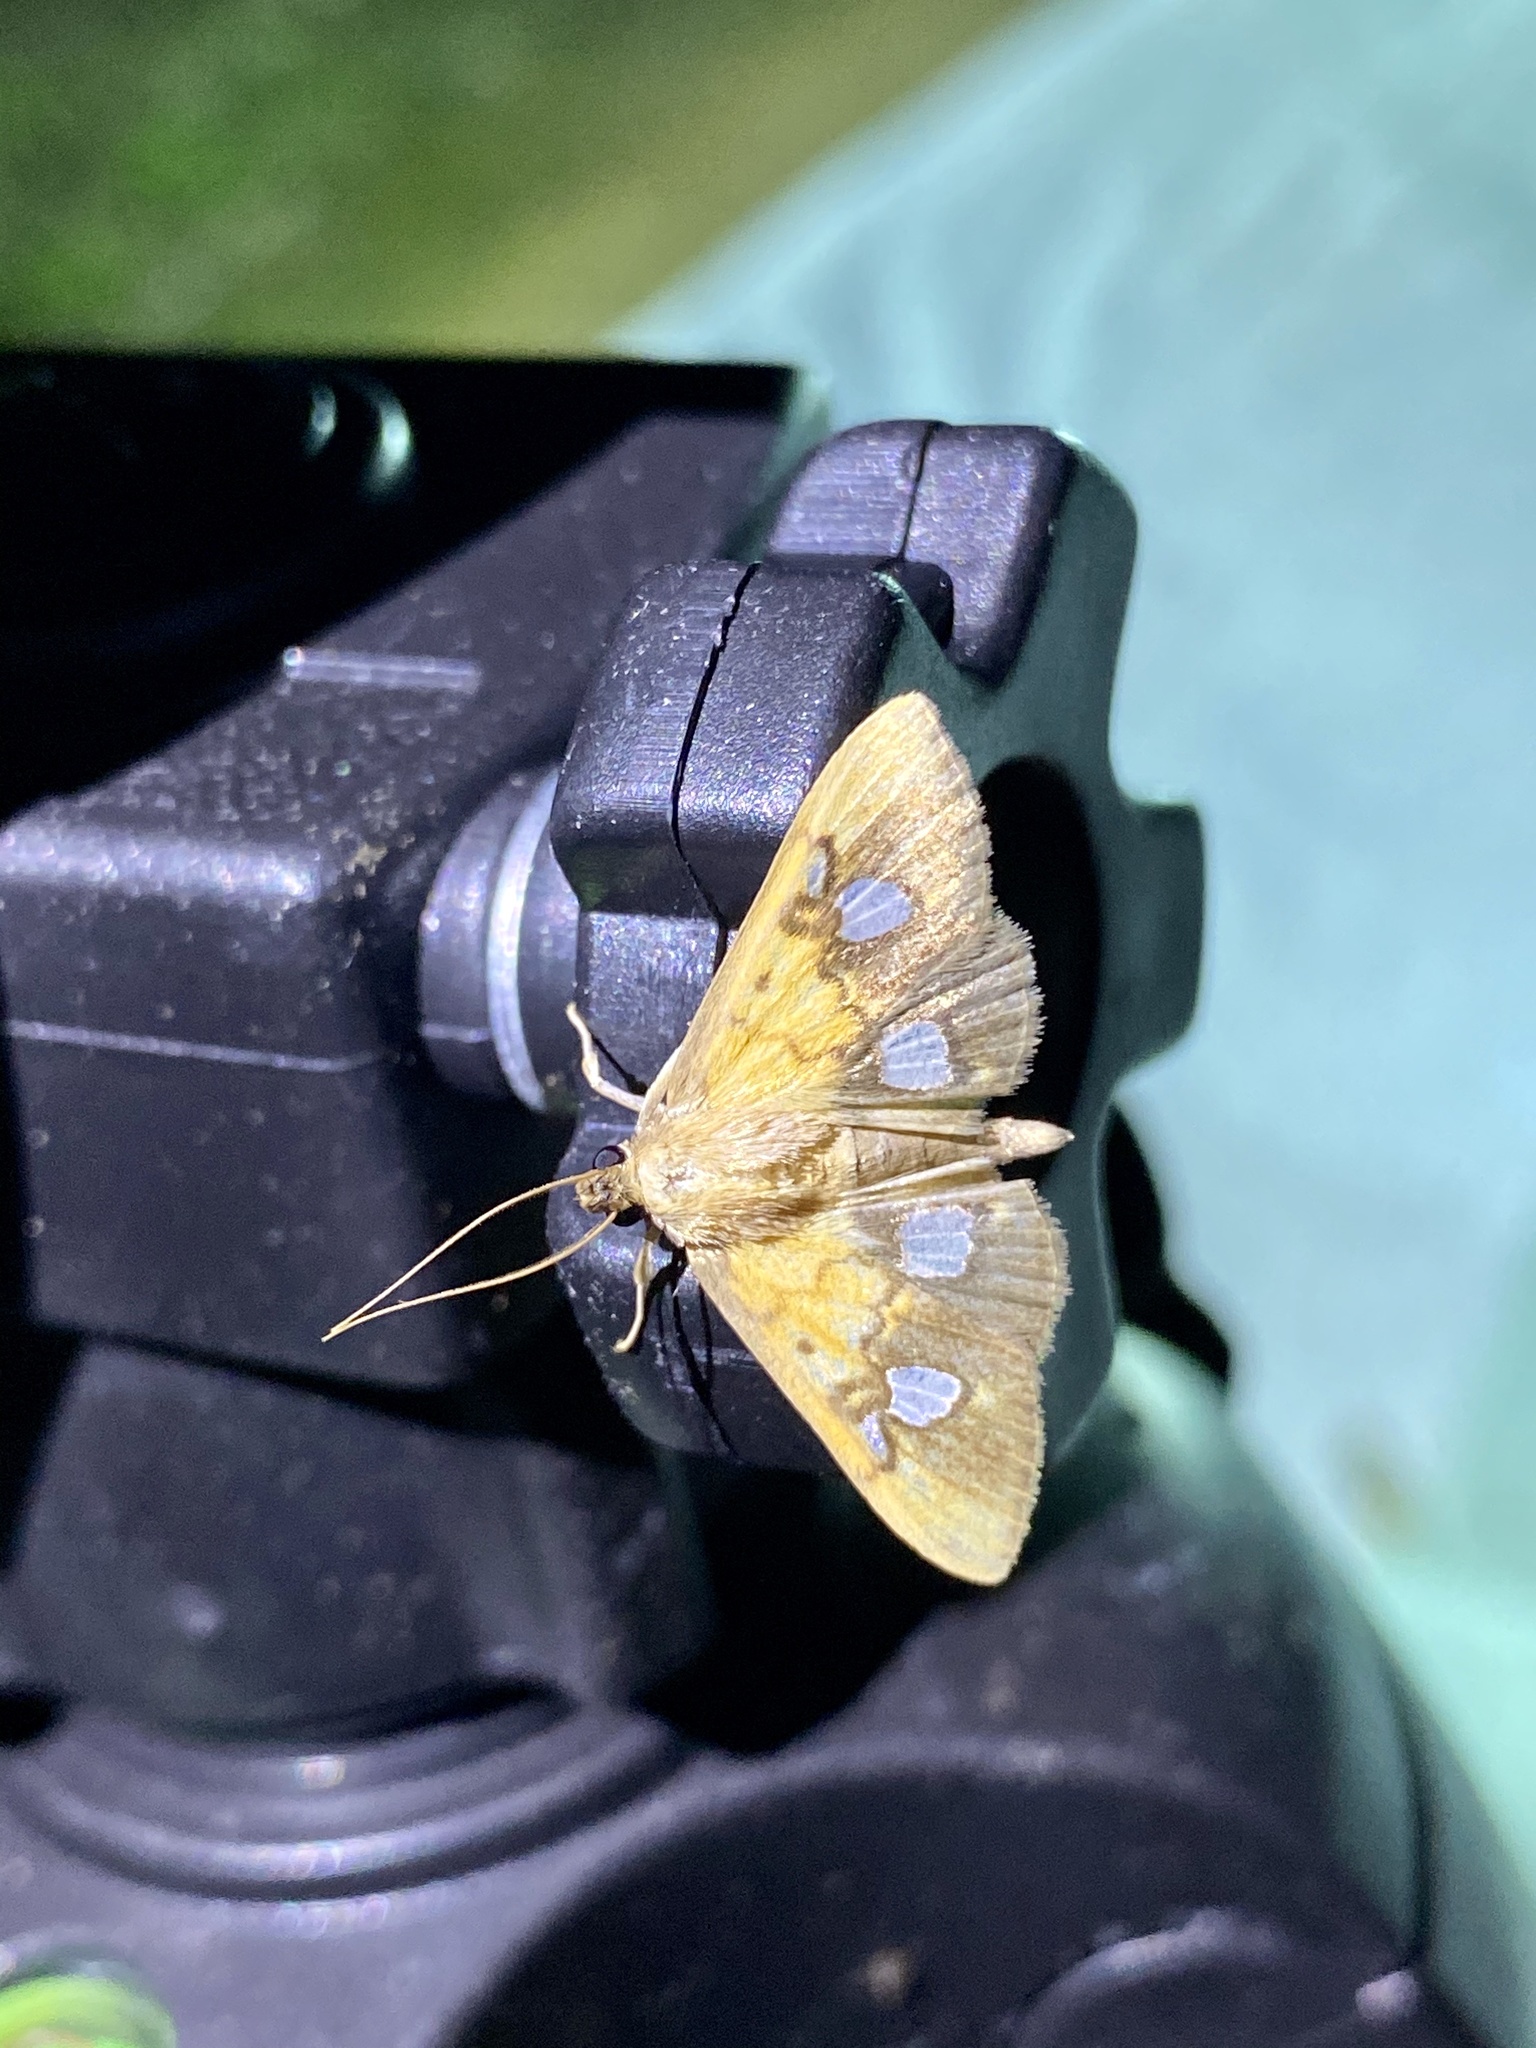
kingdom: Animalia
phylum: Arthropoda
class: Insecta
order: Lepidoptera
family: Crambidae
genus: Nosophora
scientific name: Nosophora semitritalis
